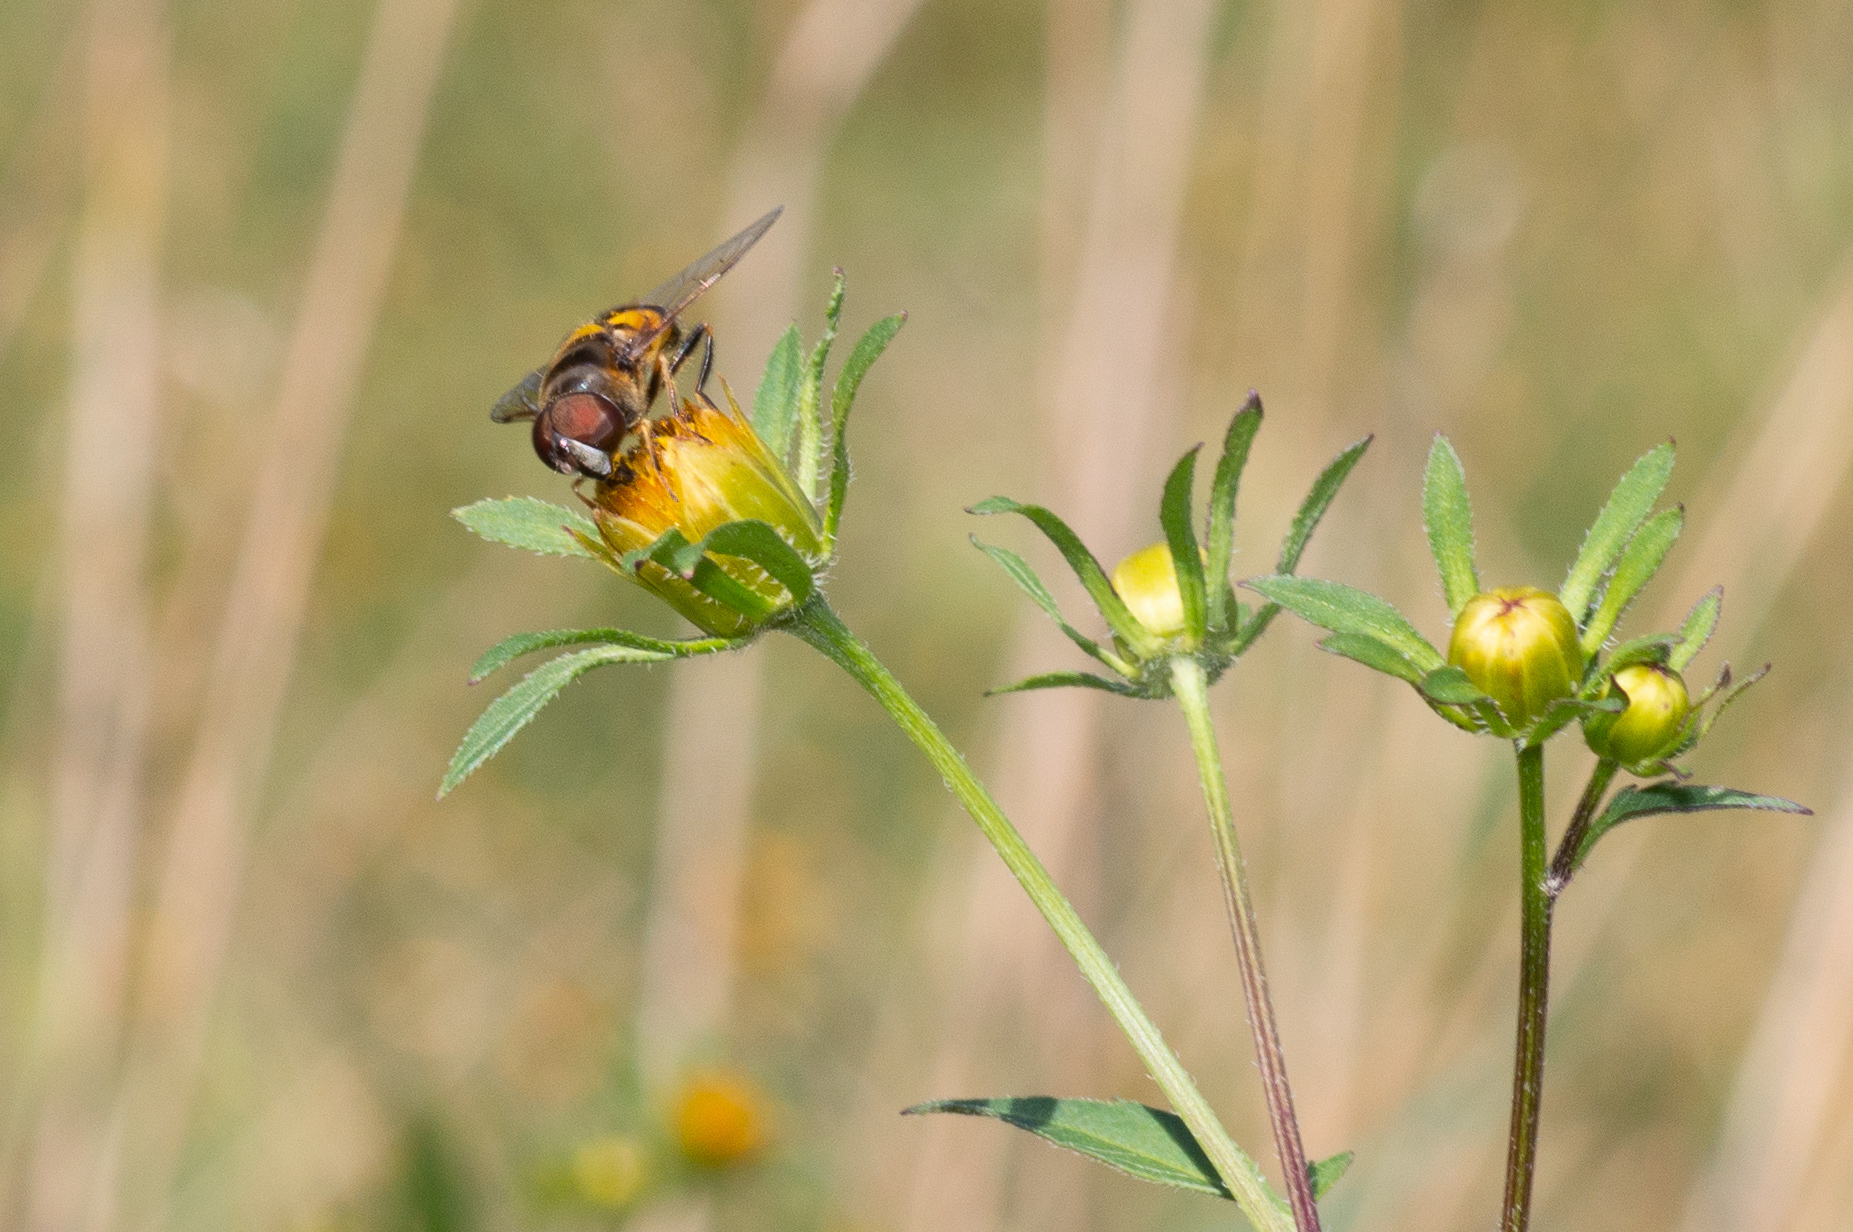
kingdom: Animalia
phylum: Arthropoda
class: Insecta
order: Diptera
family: Syrphidae
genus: Eristalis
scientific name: Eristalis transversa
